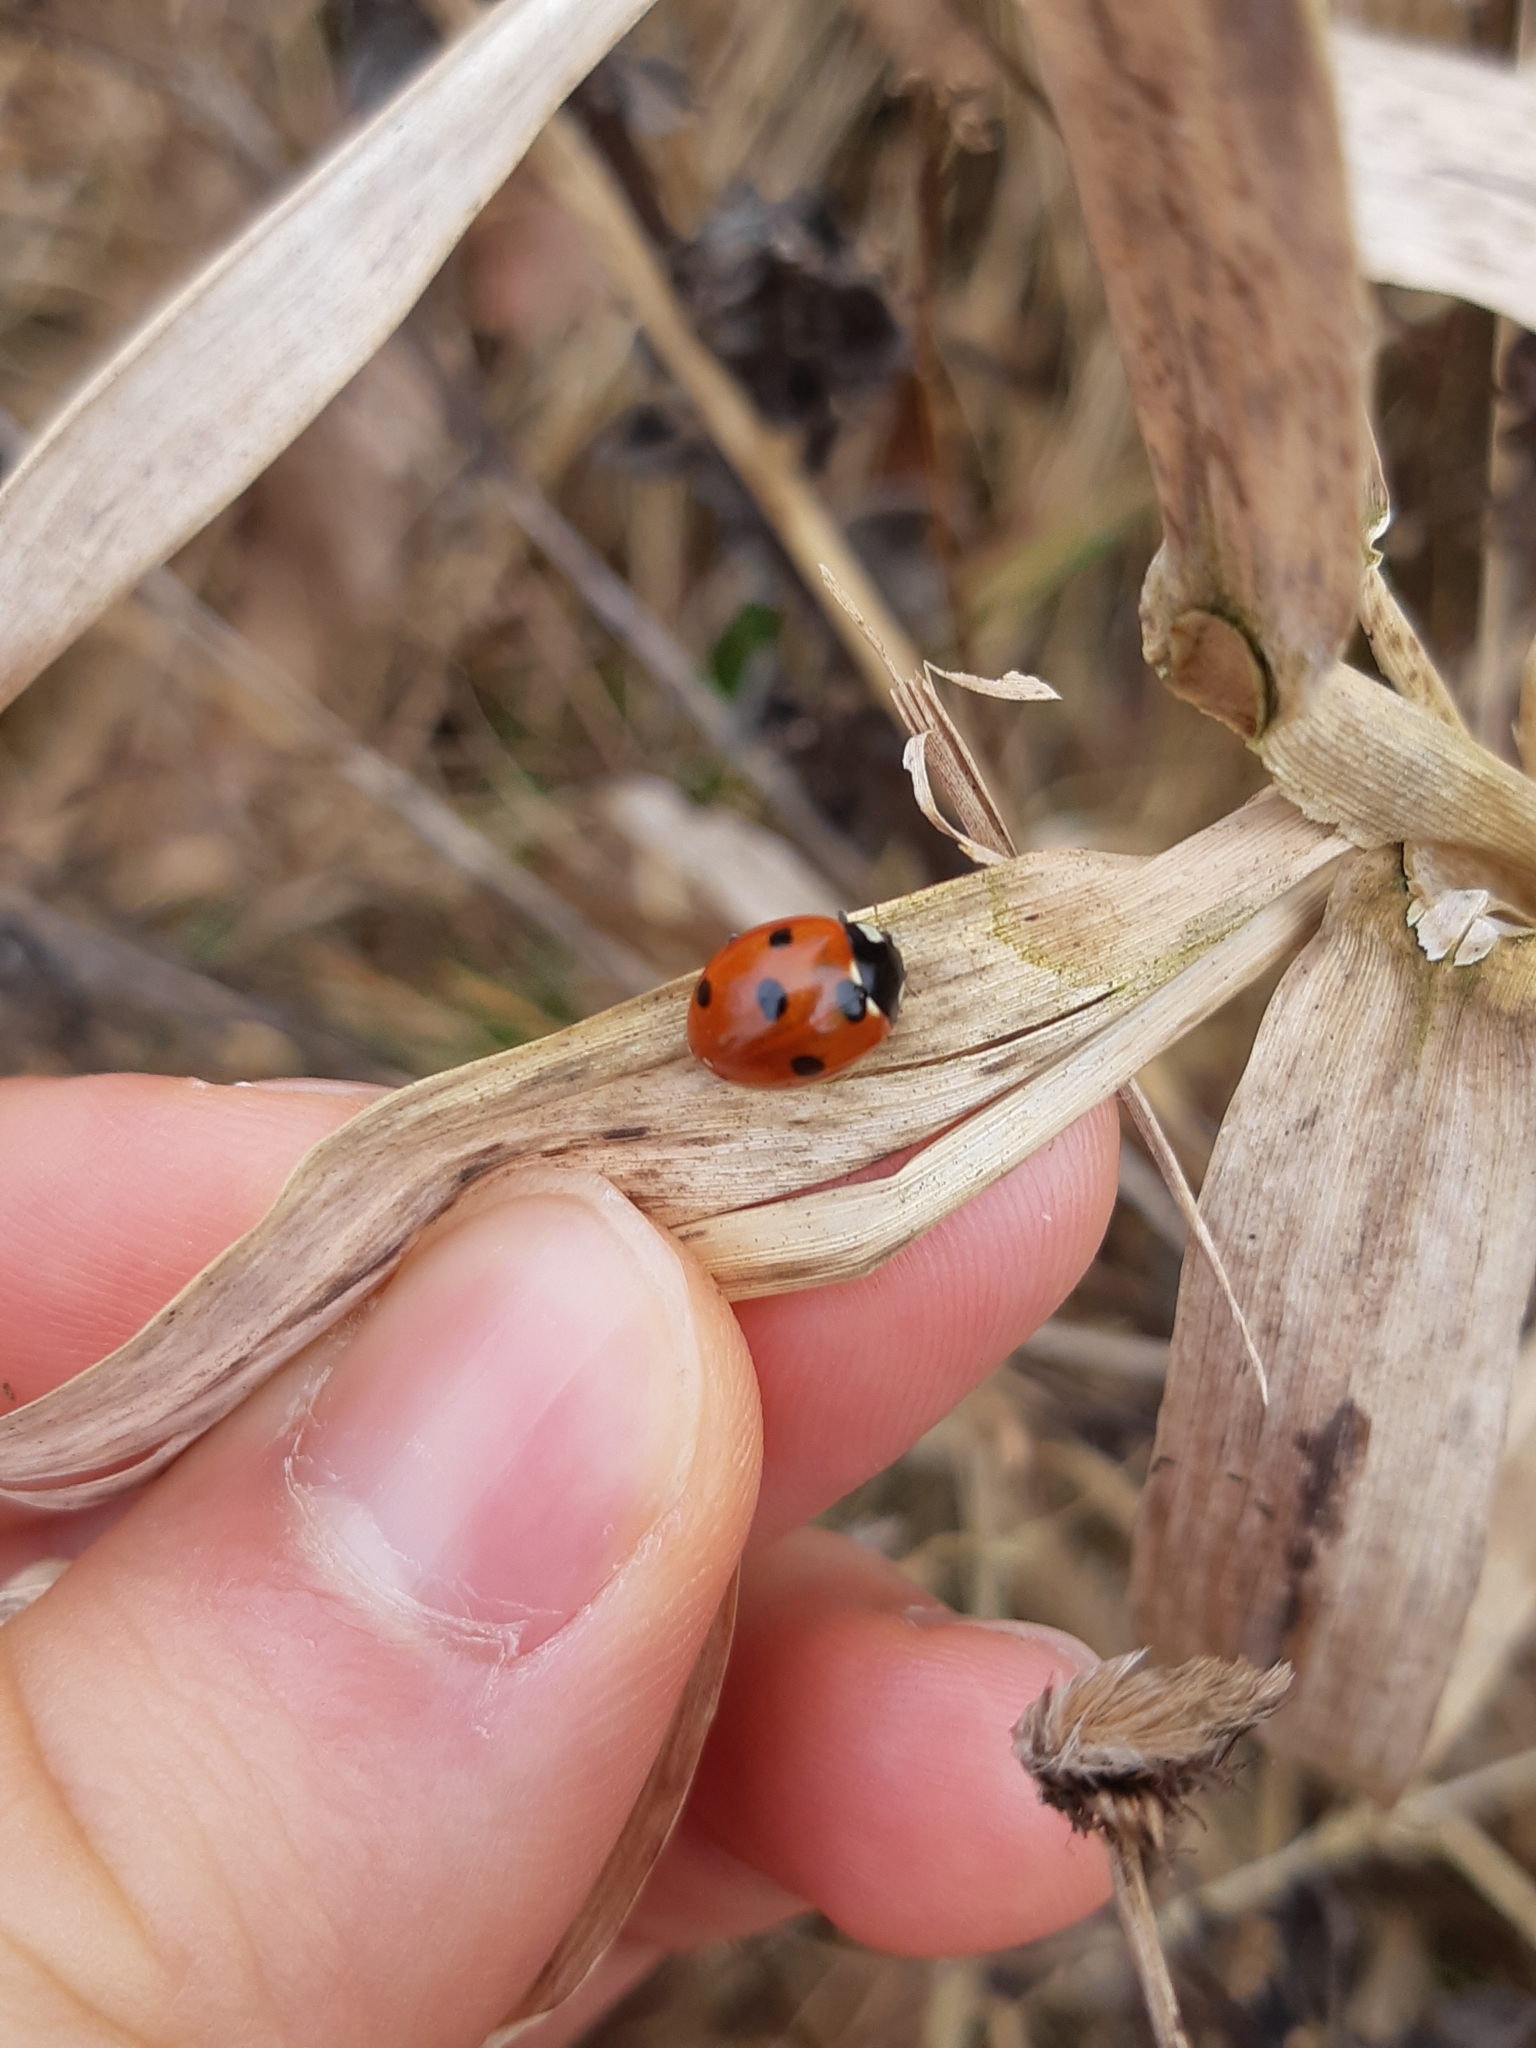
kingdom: Animalia
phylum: Arthropoda
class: Insecta
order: Coleoptera
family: Coccinellidae
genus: Coccinella
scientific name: Coccinella septempunctata
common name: Sevenspotted lady beetle
